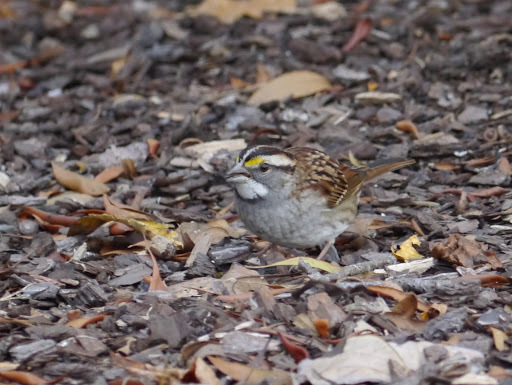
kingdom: Animalia
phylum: Chordata
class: Aves
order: Passeriformes
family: Passerellidae
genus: Zonotrichia
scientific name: Zonotrichia albicollis
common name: White-throated sparrow
